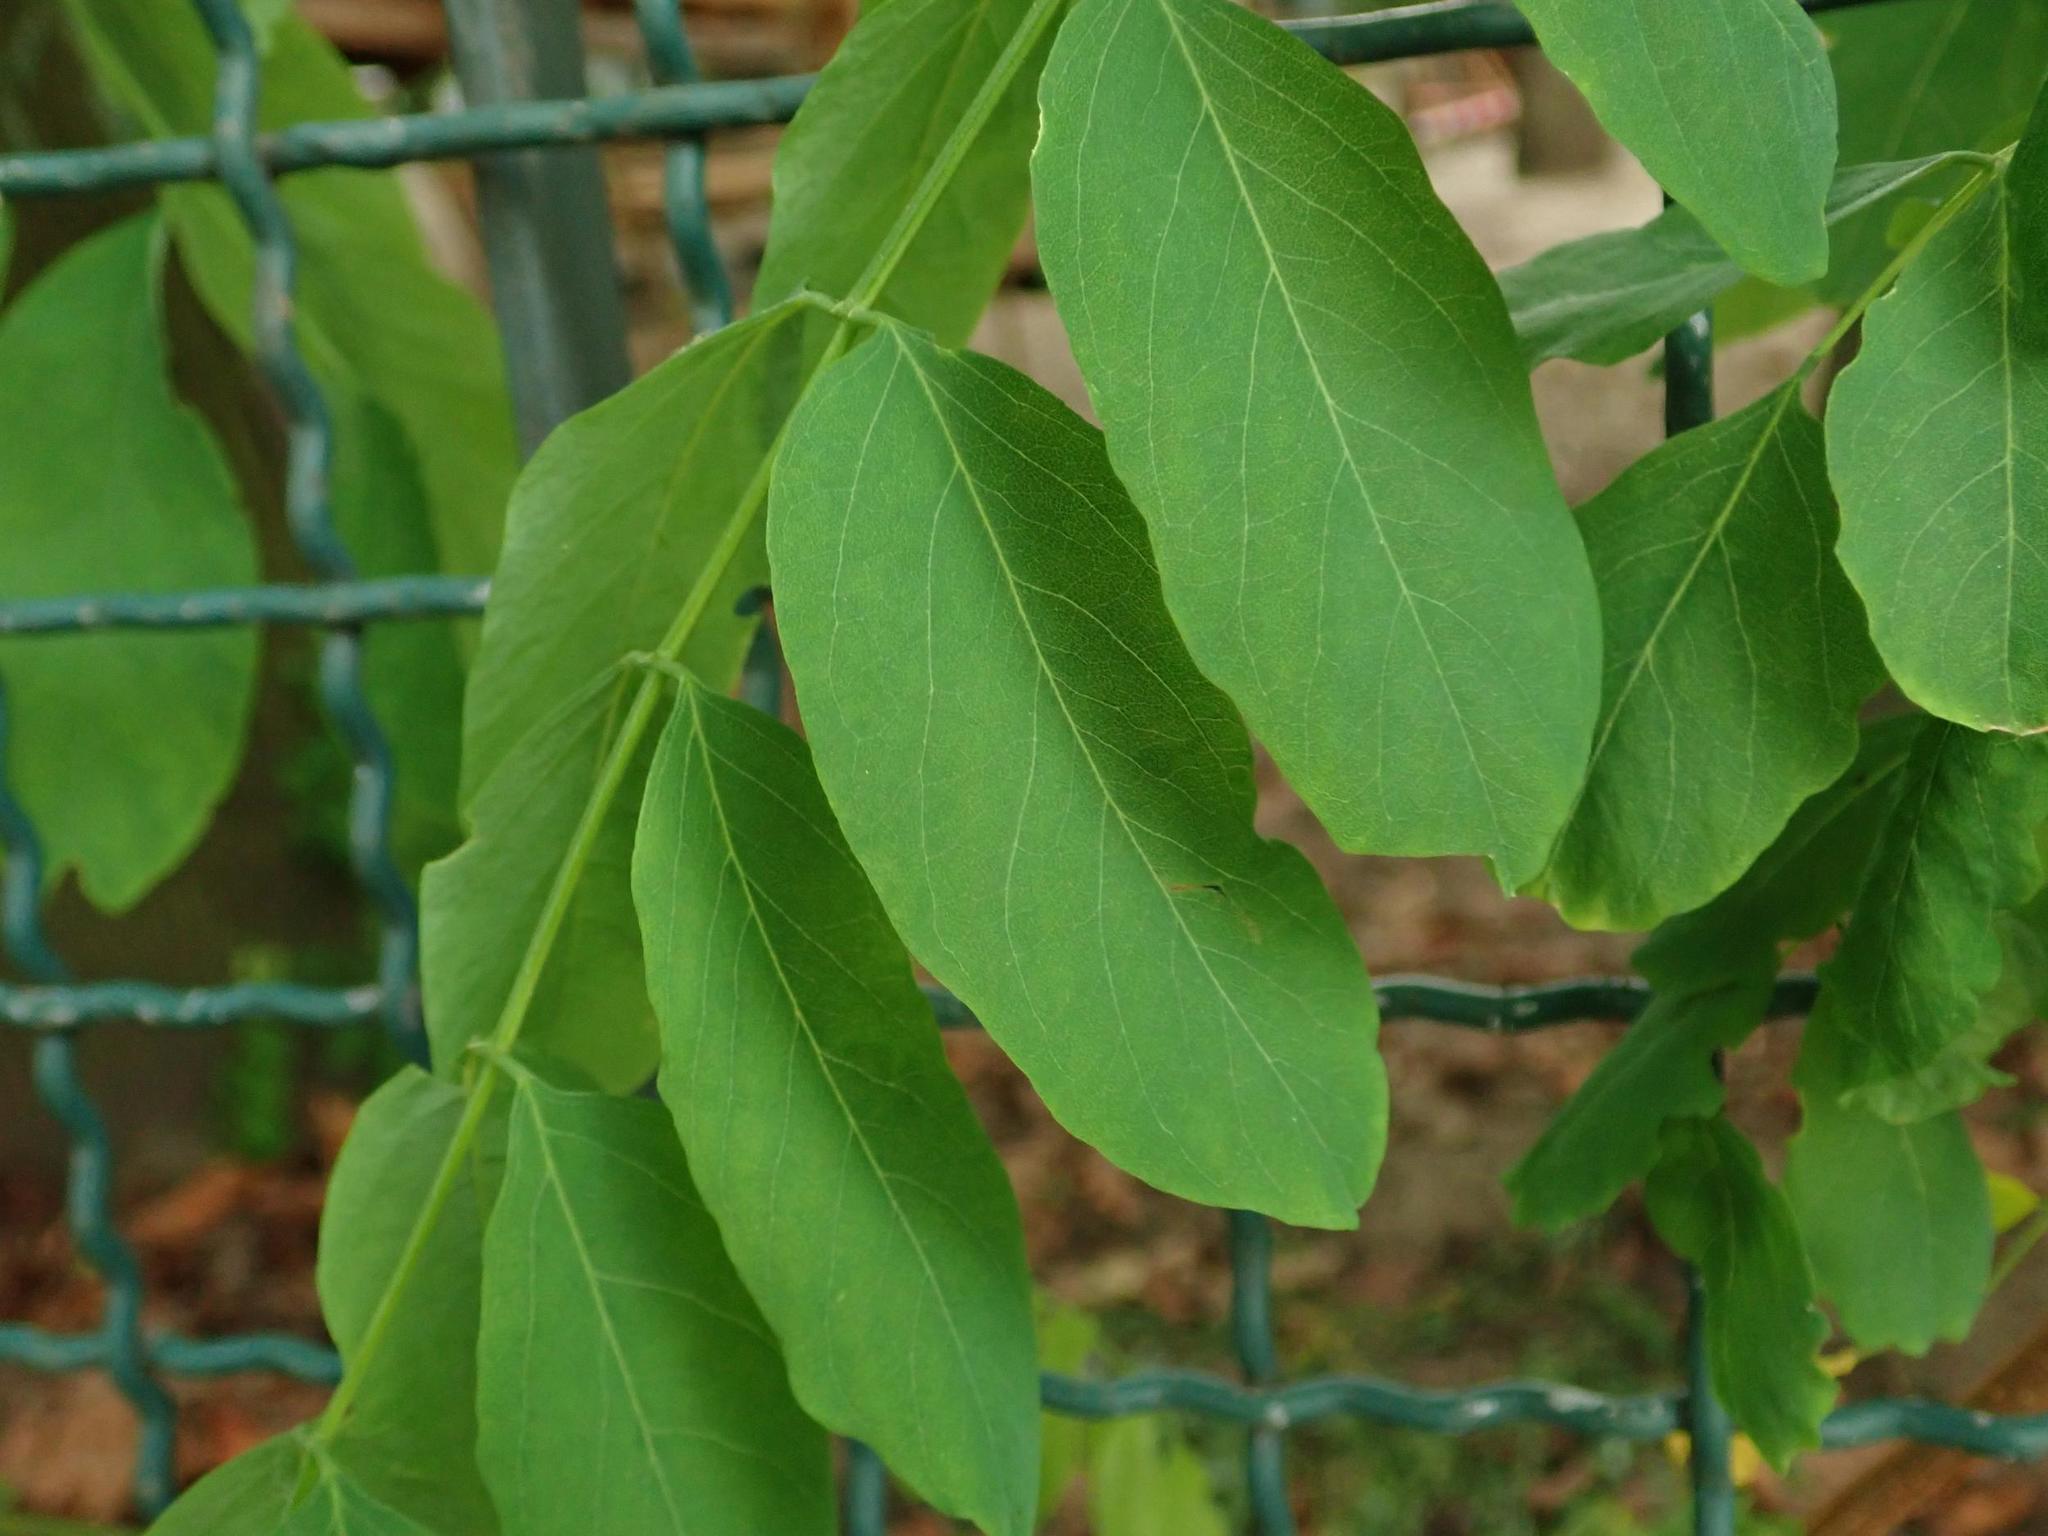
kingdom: Plantae
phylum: Tracheophyta
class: Magnoliopsida
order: Fabales
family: Fabaceae
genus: Robinia
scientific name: Robinia pseudoacacia
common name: Black locust
